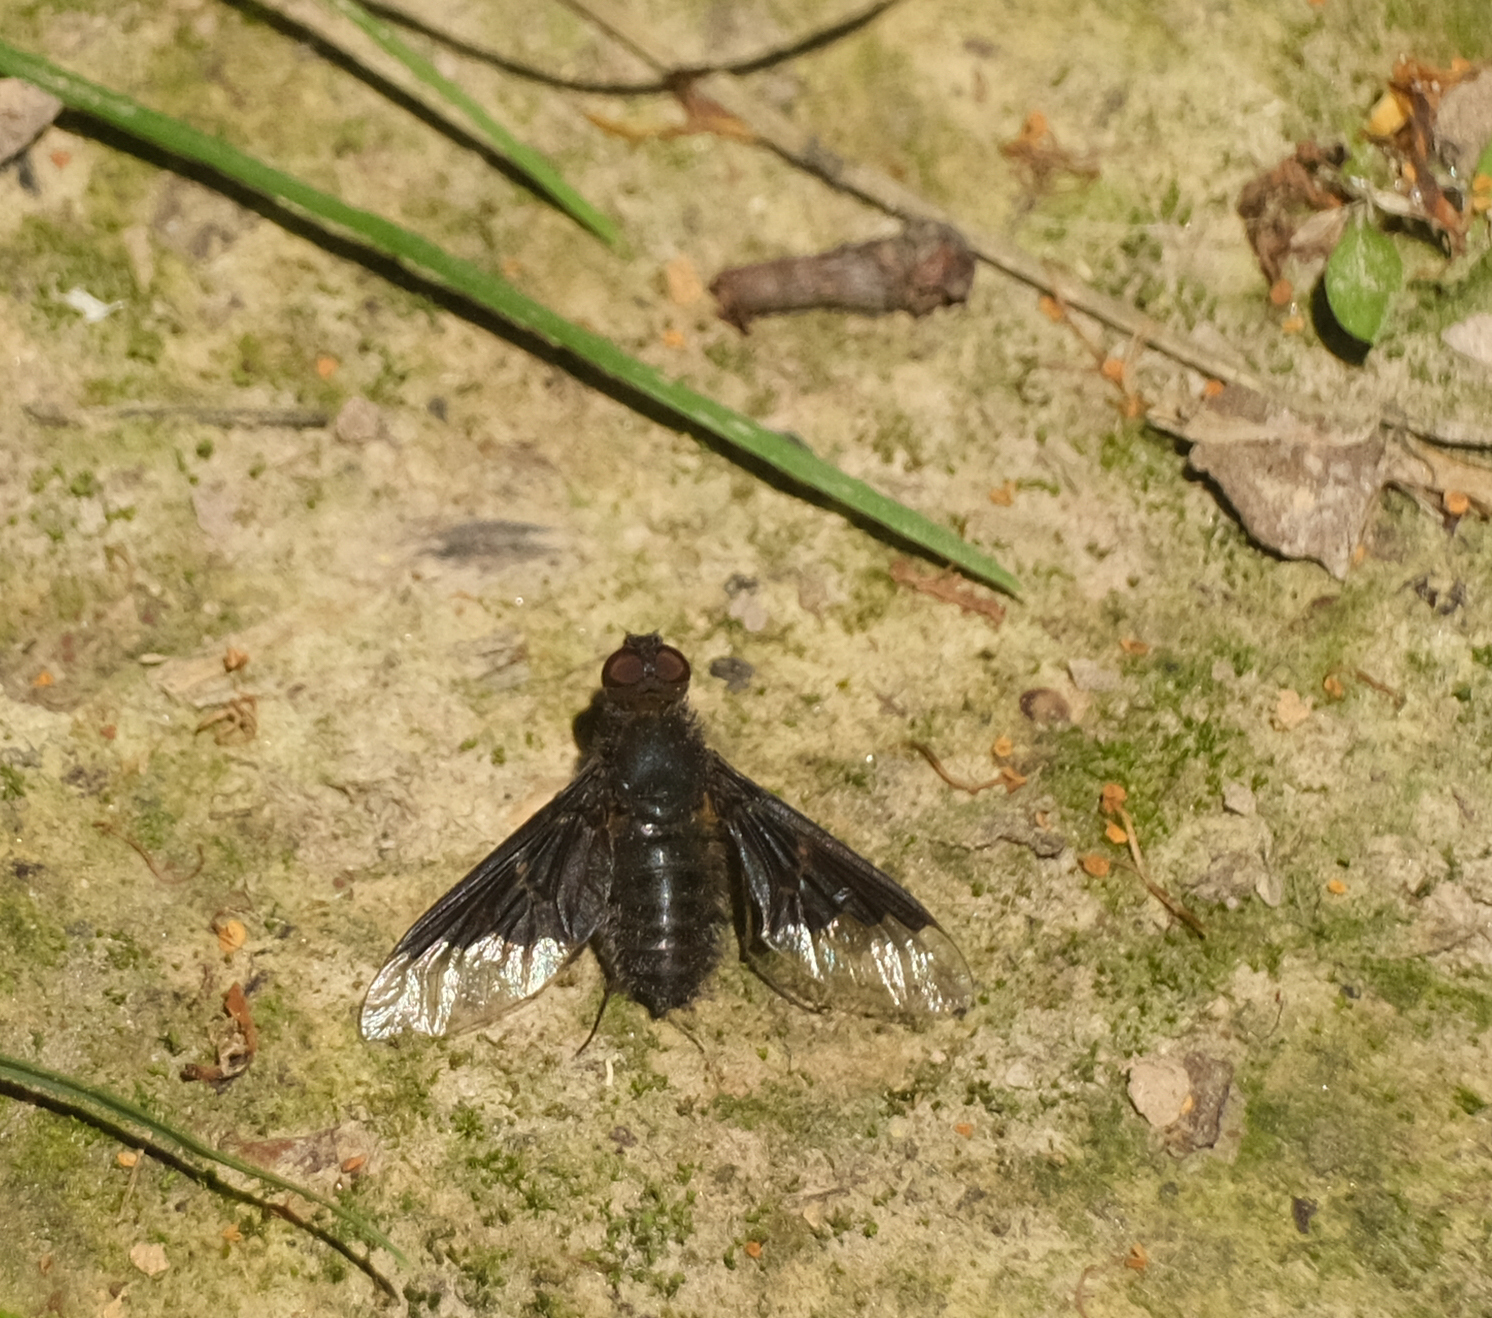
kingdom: Animalia
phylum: Arthropoda
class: Insecta
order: Diptera
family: Bombyliidae
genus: Hemipenthes
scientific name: Hemipenthes morio
